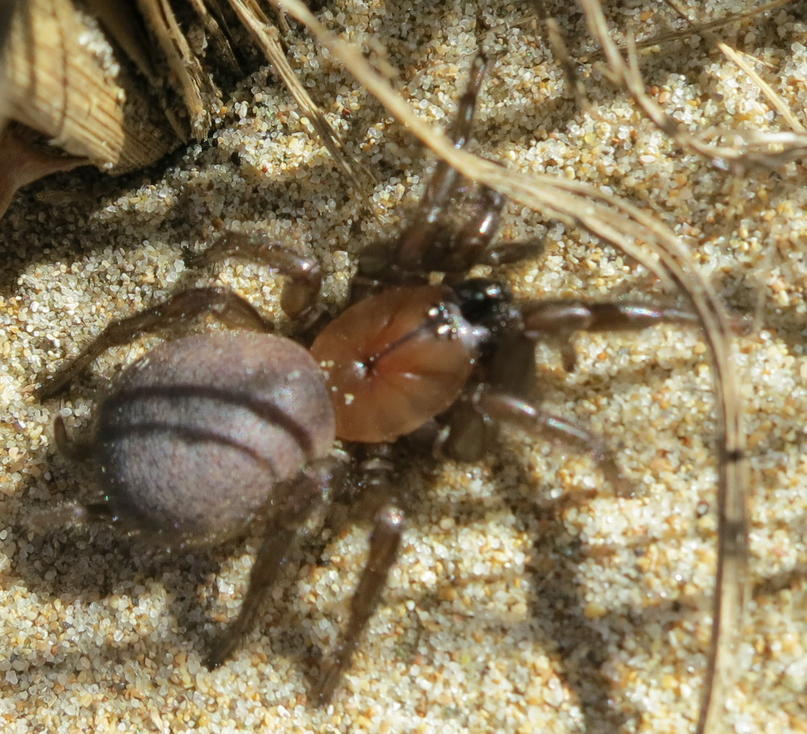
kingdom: Animalia
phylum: Arthropoda
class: Arachnida
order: Araneae
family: Porrhothelidae
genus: Porrhothele
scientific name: Porrhothele antipodiana
